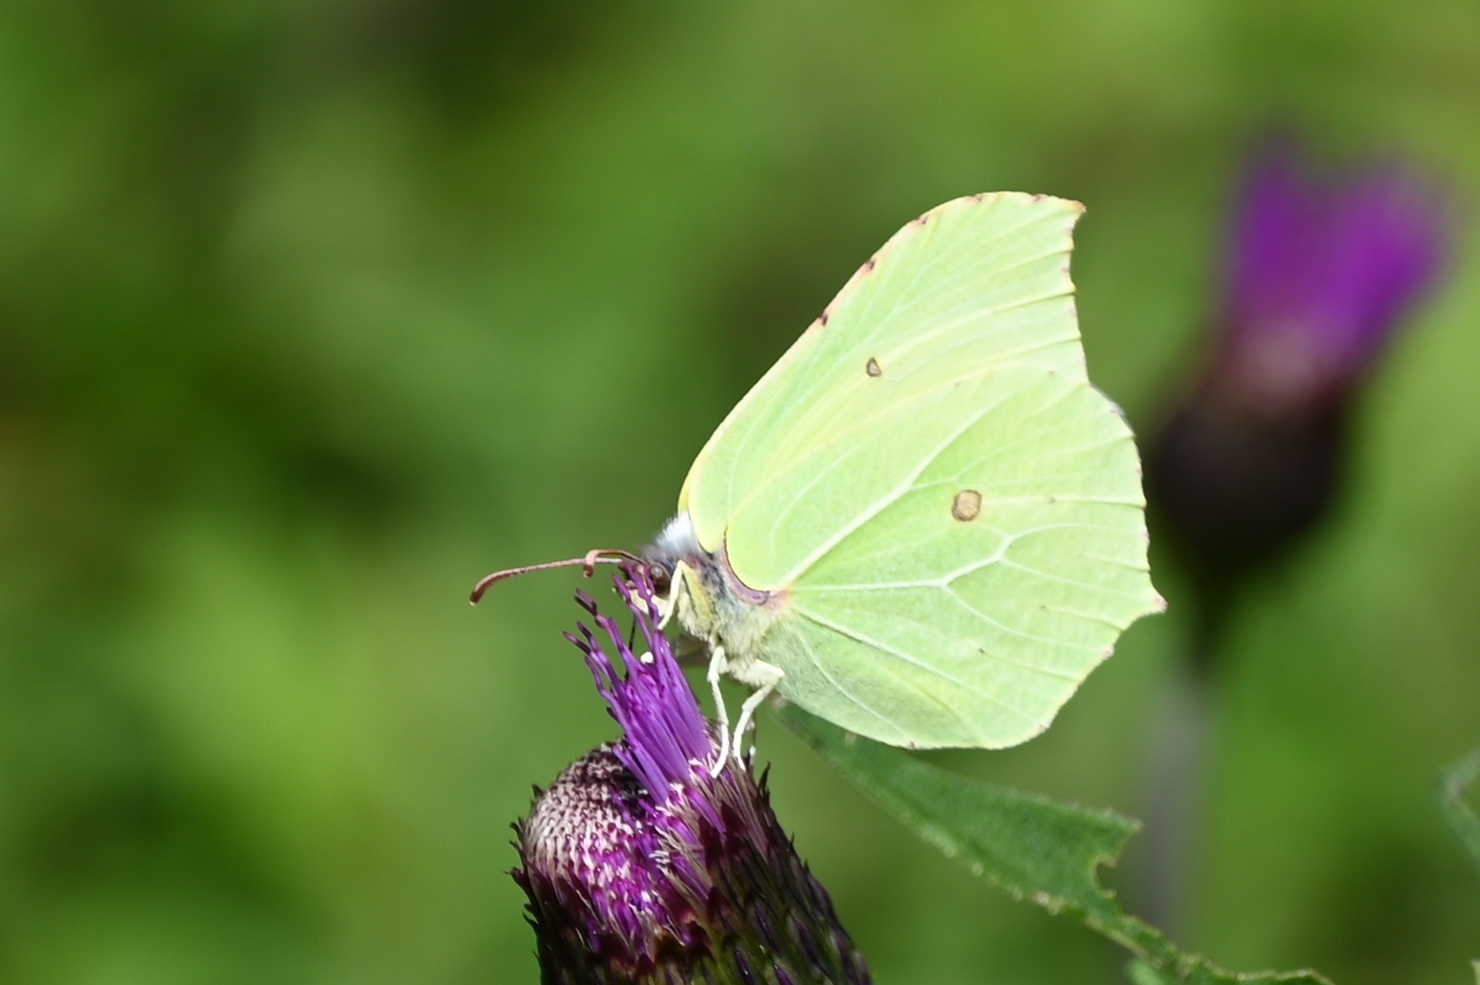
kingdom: Animalia
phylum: Arthropoda
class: Insecta
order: Lepidoptera
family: Pieridae
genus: Gonepteryx
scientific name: Gonepteryx rhamni
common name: Brimstone
